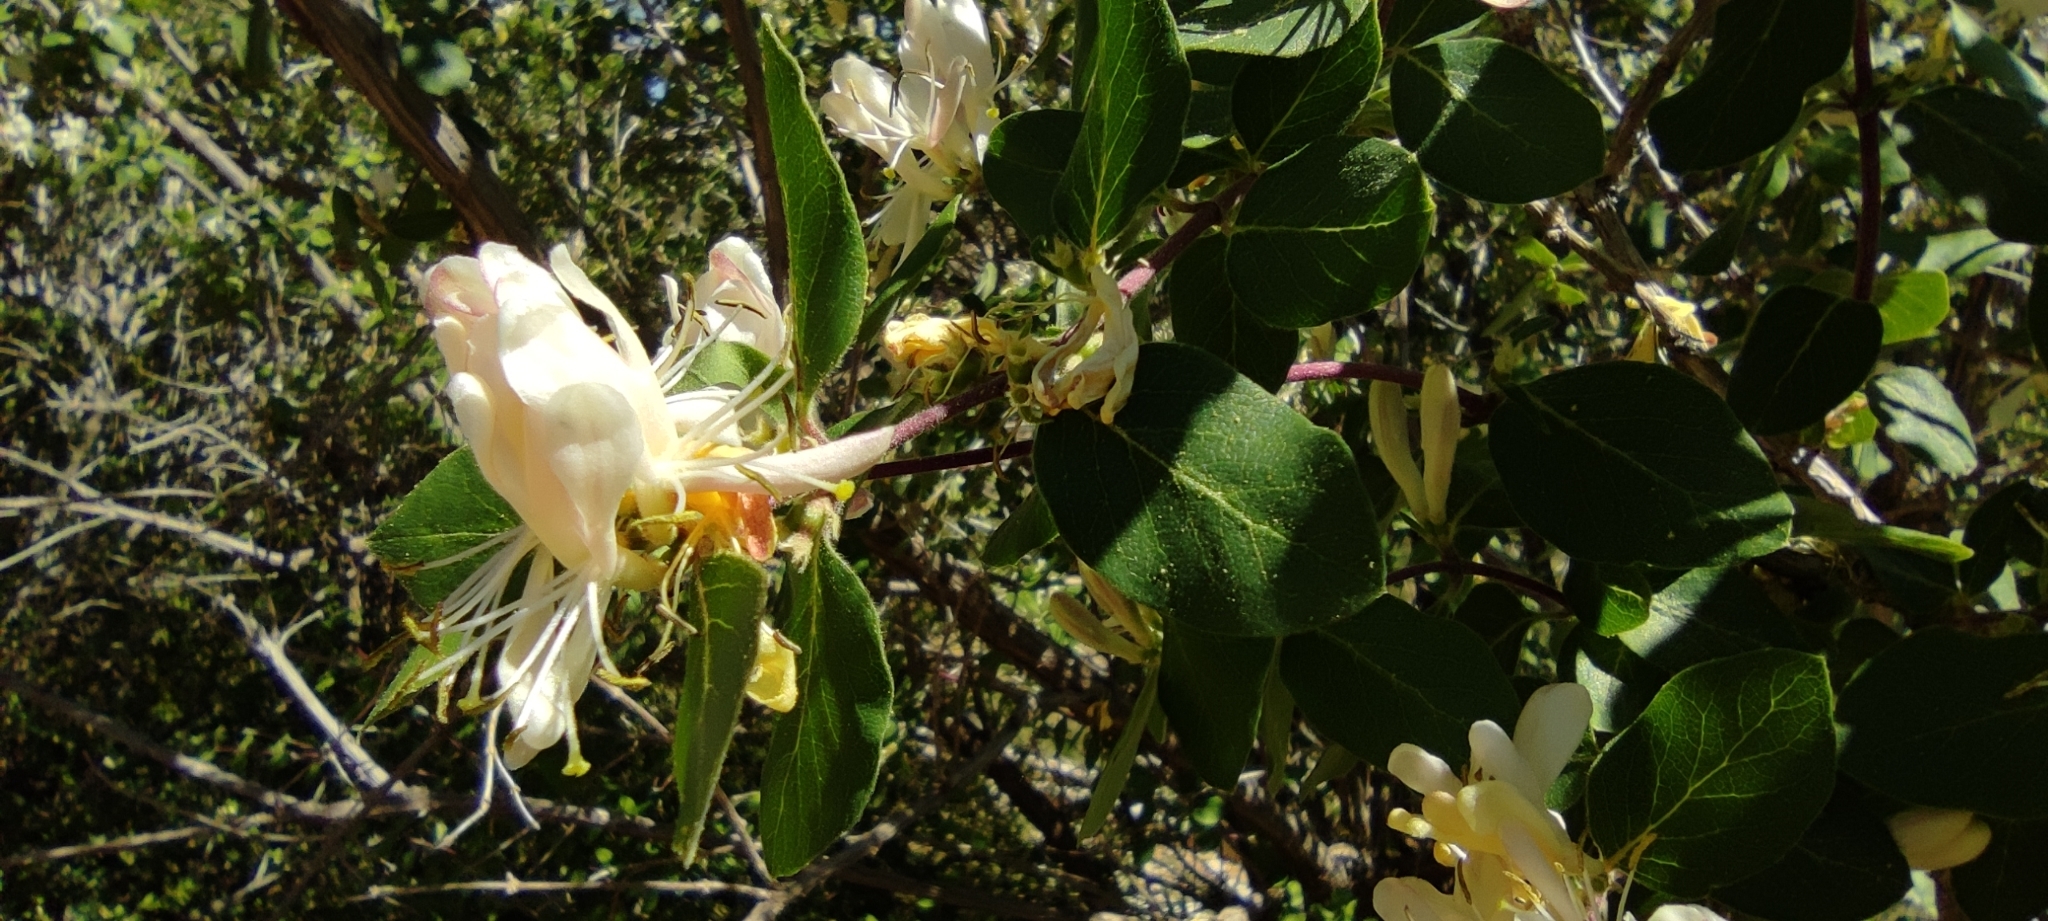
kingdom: Plantae
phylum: Tracheophyta
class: Magnoliopsida
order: Dipsacales
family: Caprifoliaceae
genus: Lonicera
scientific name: Lonicera arborea
